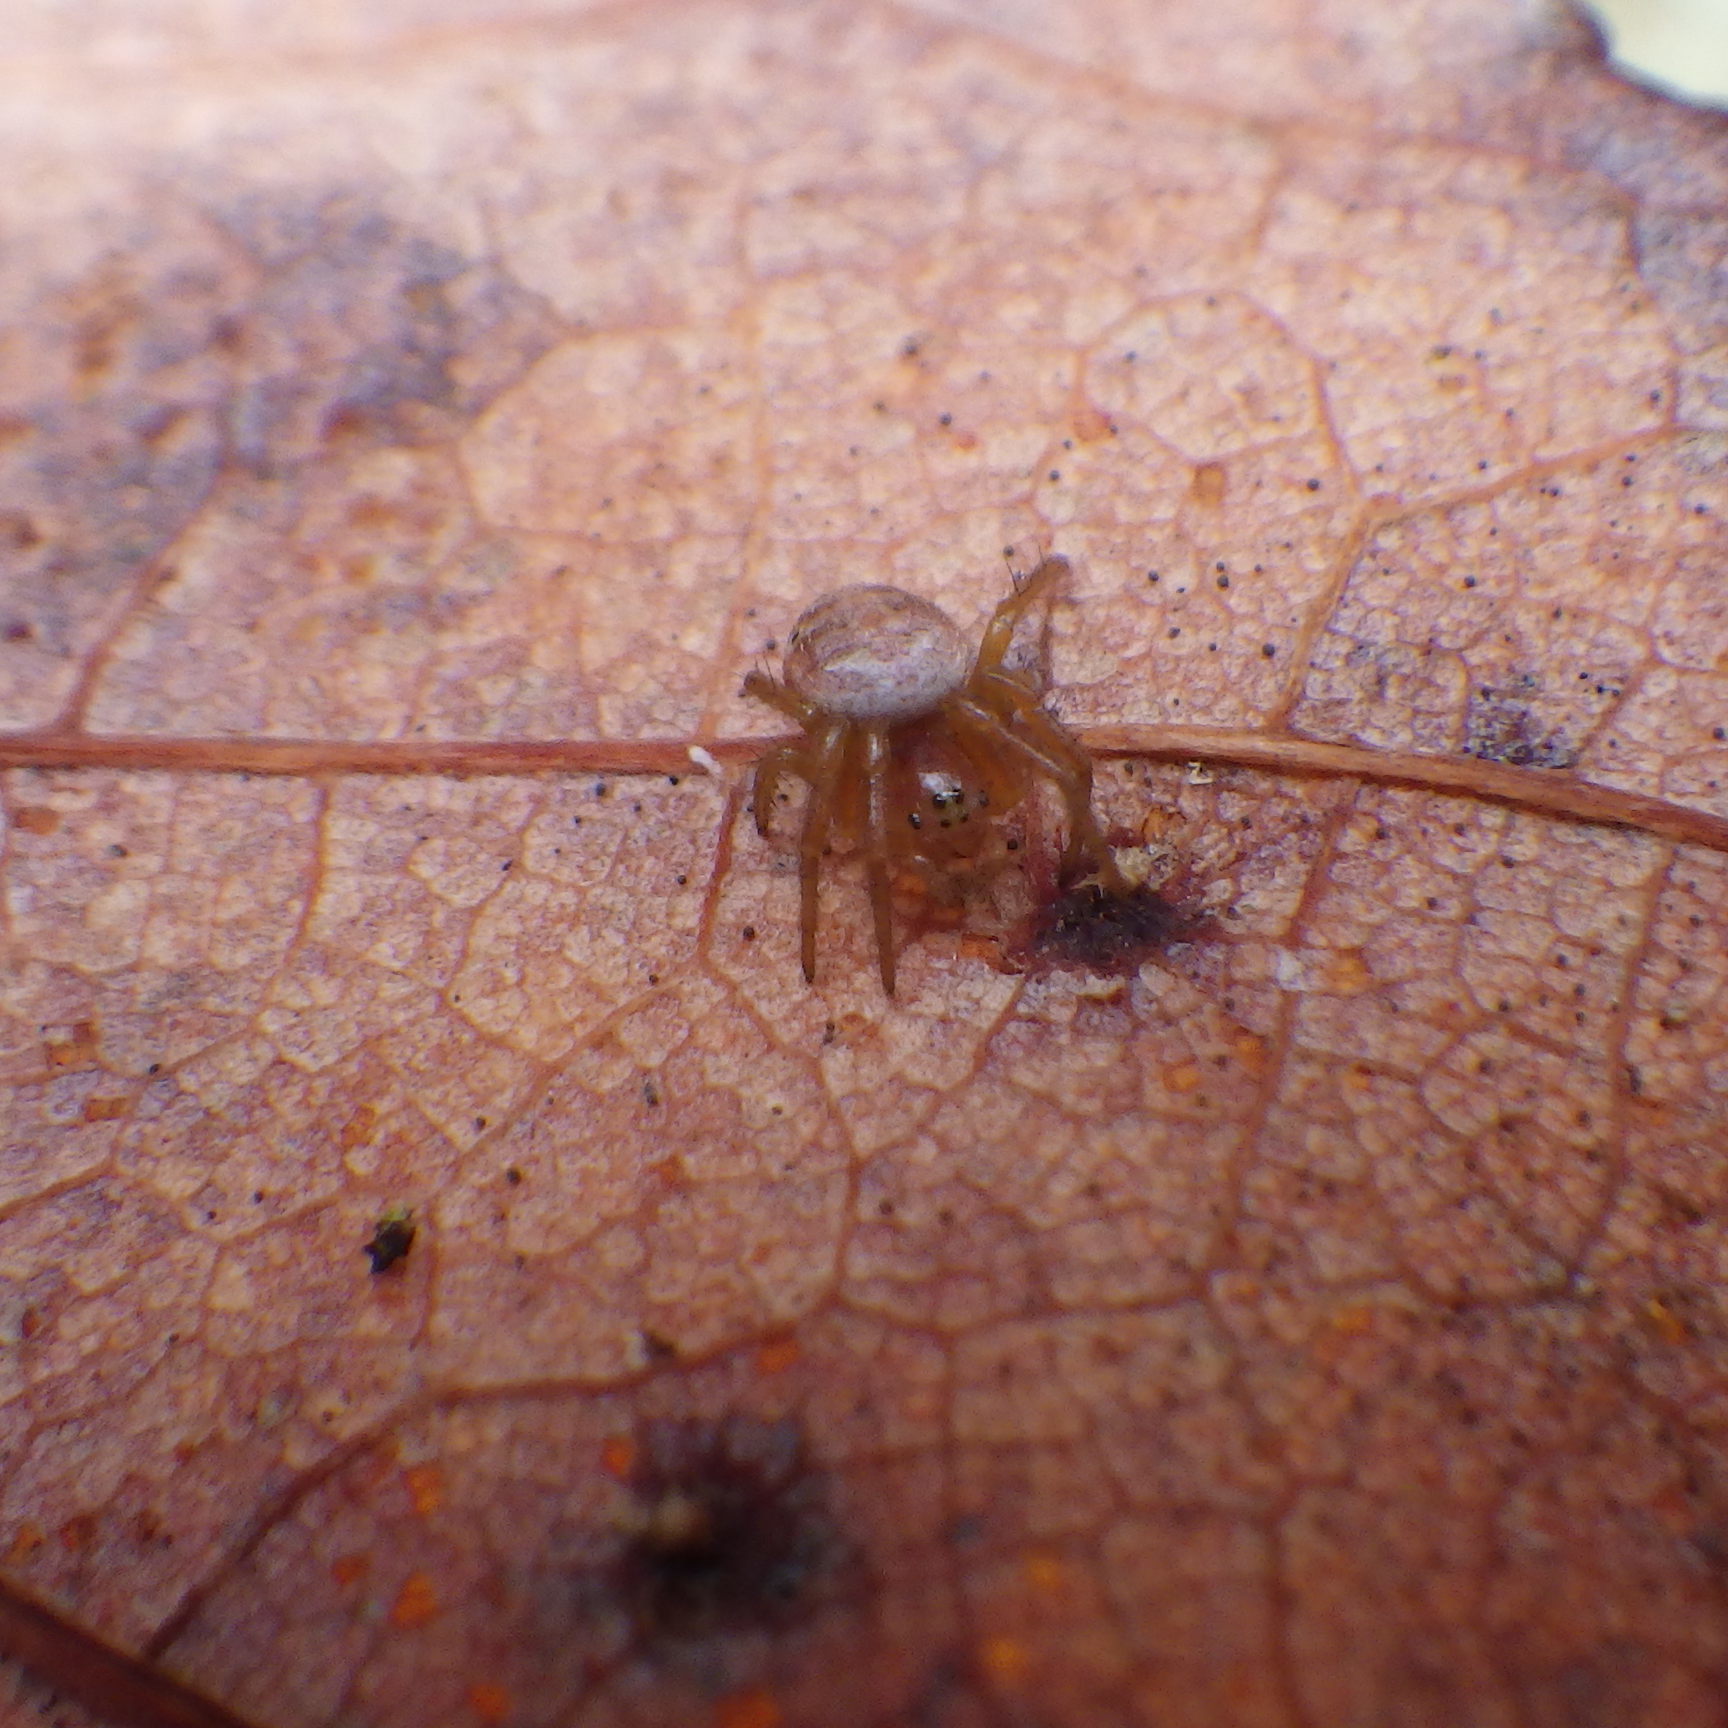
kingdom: Animalia
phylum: Arthropoda
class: Arachnida
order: Araneae
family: Araneidae
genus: Araniella
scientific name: Araniella displicata
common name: Sixspotted orb weaver
